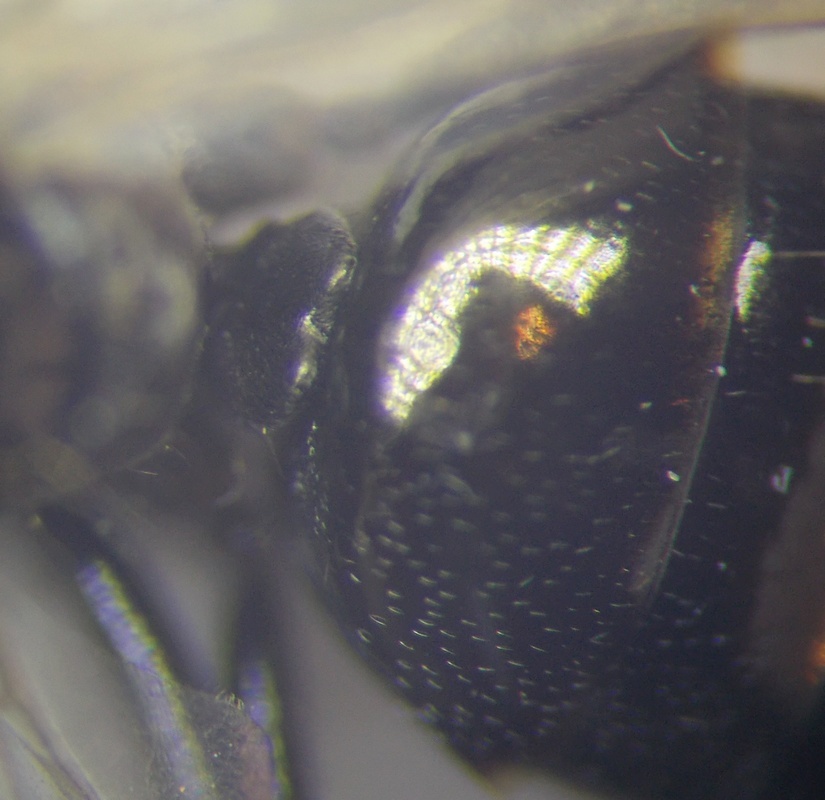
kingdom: Animalia
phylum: Arthropoda
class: Insecta
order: Hymenoptera
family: Formicidae
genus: Cataglyphis
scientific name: Cataglyphis aenescens
